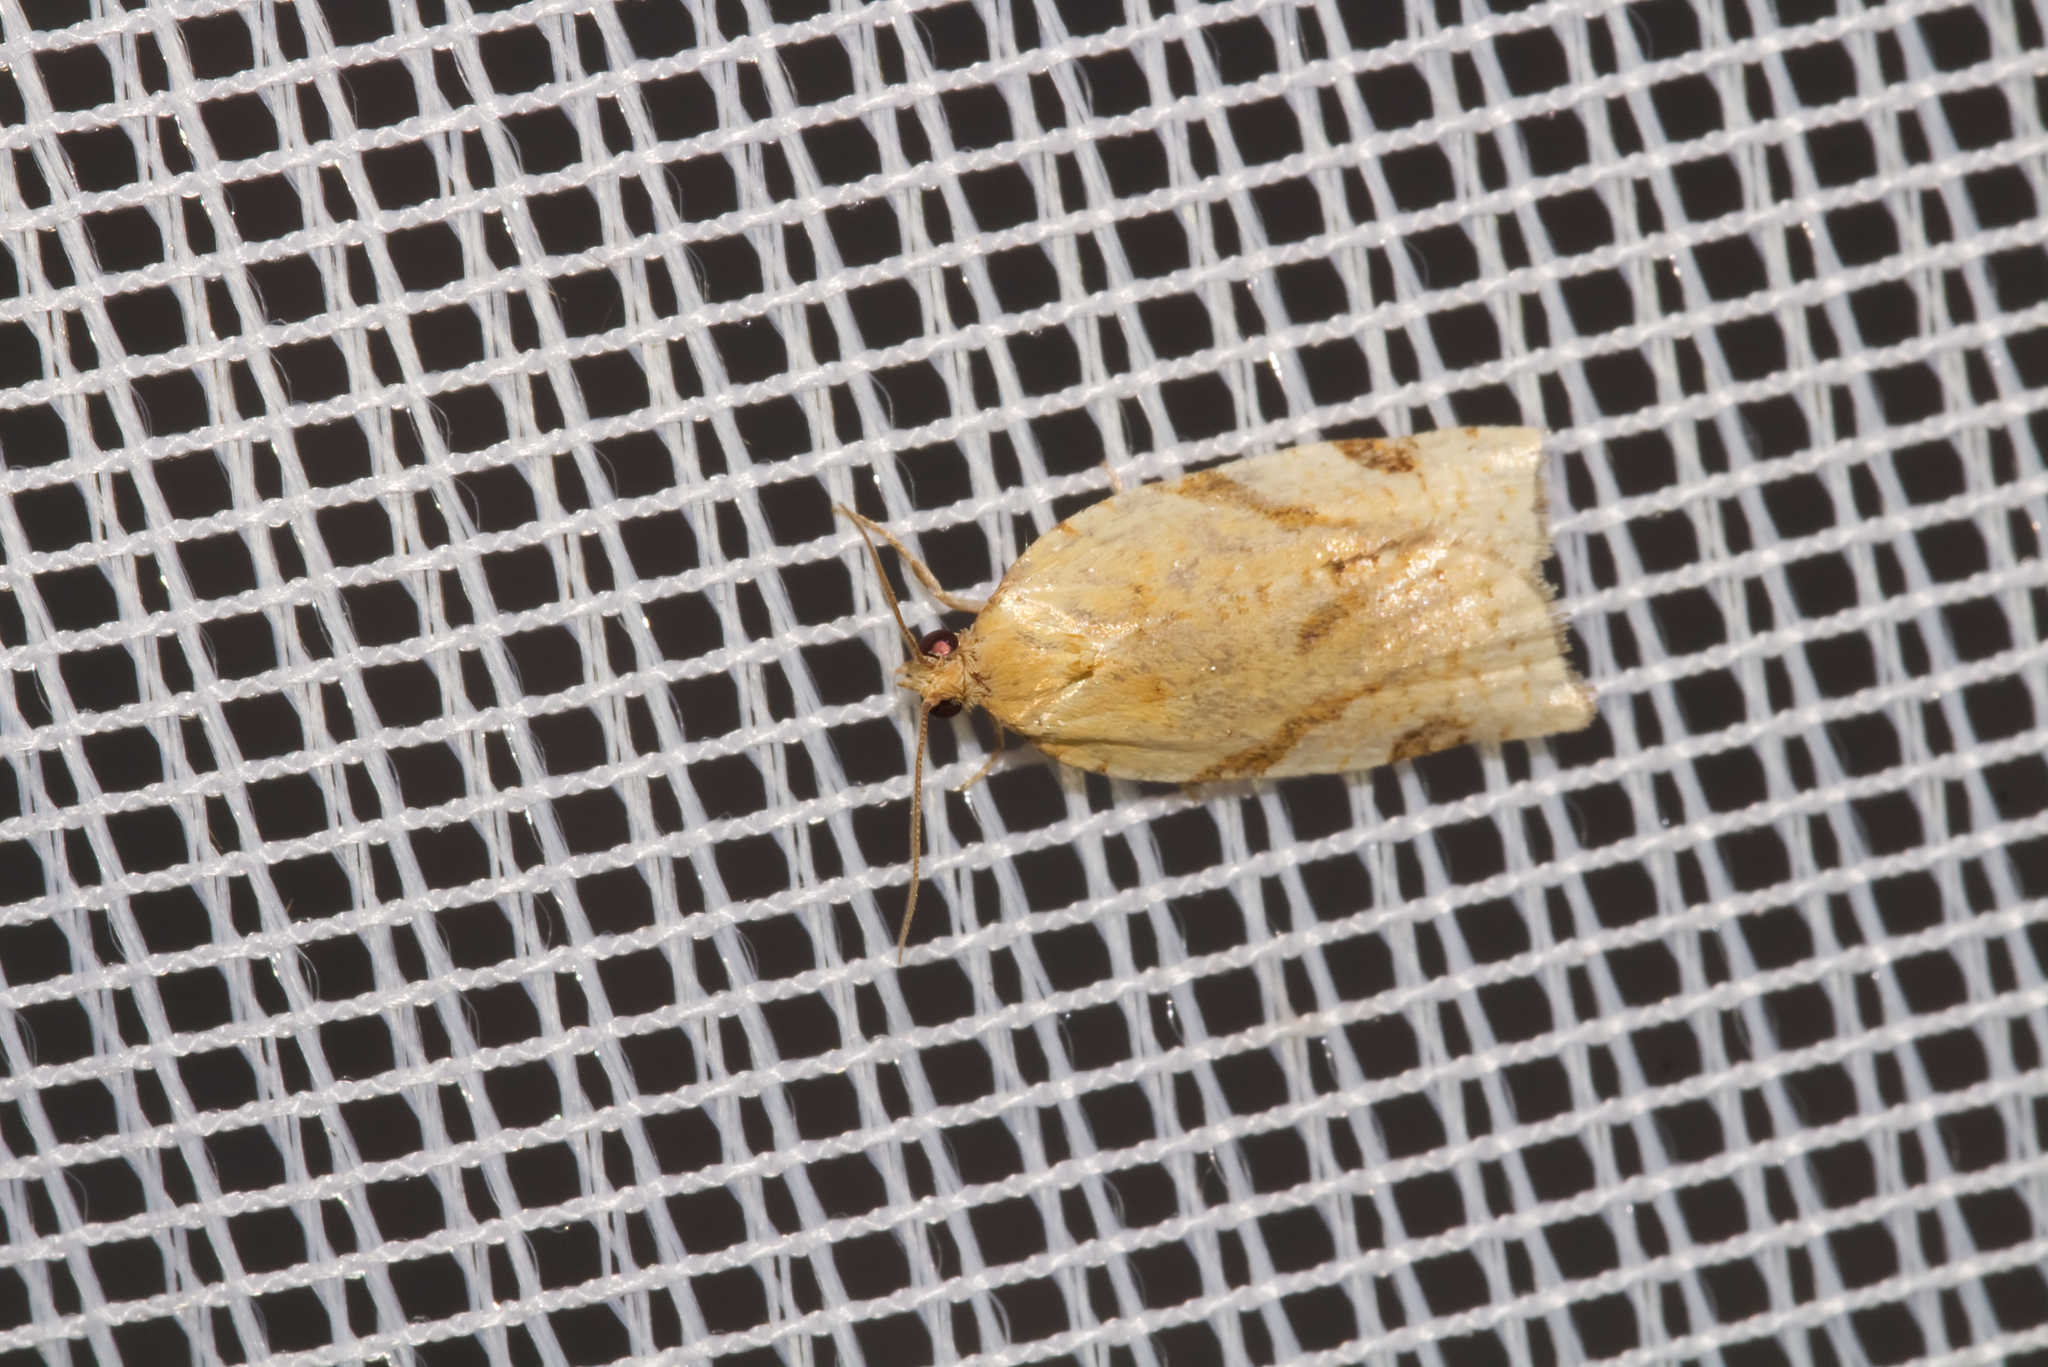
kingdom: Animalia
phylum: Arthropoda
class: Insecta
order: Lepidoptera
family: Tortricidae
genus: Paramesia
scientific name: Paramesia gnomana
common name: Small straw twist
